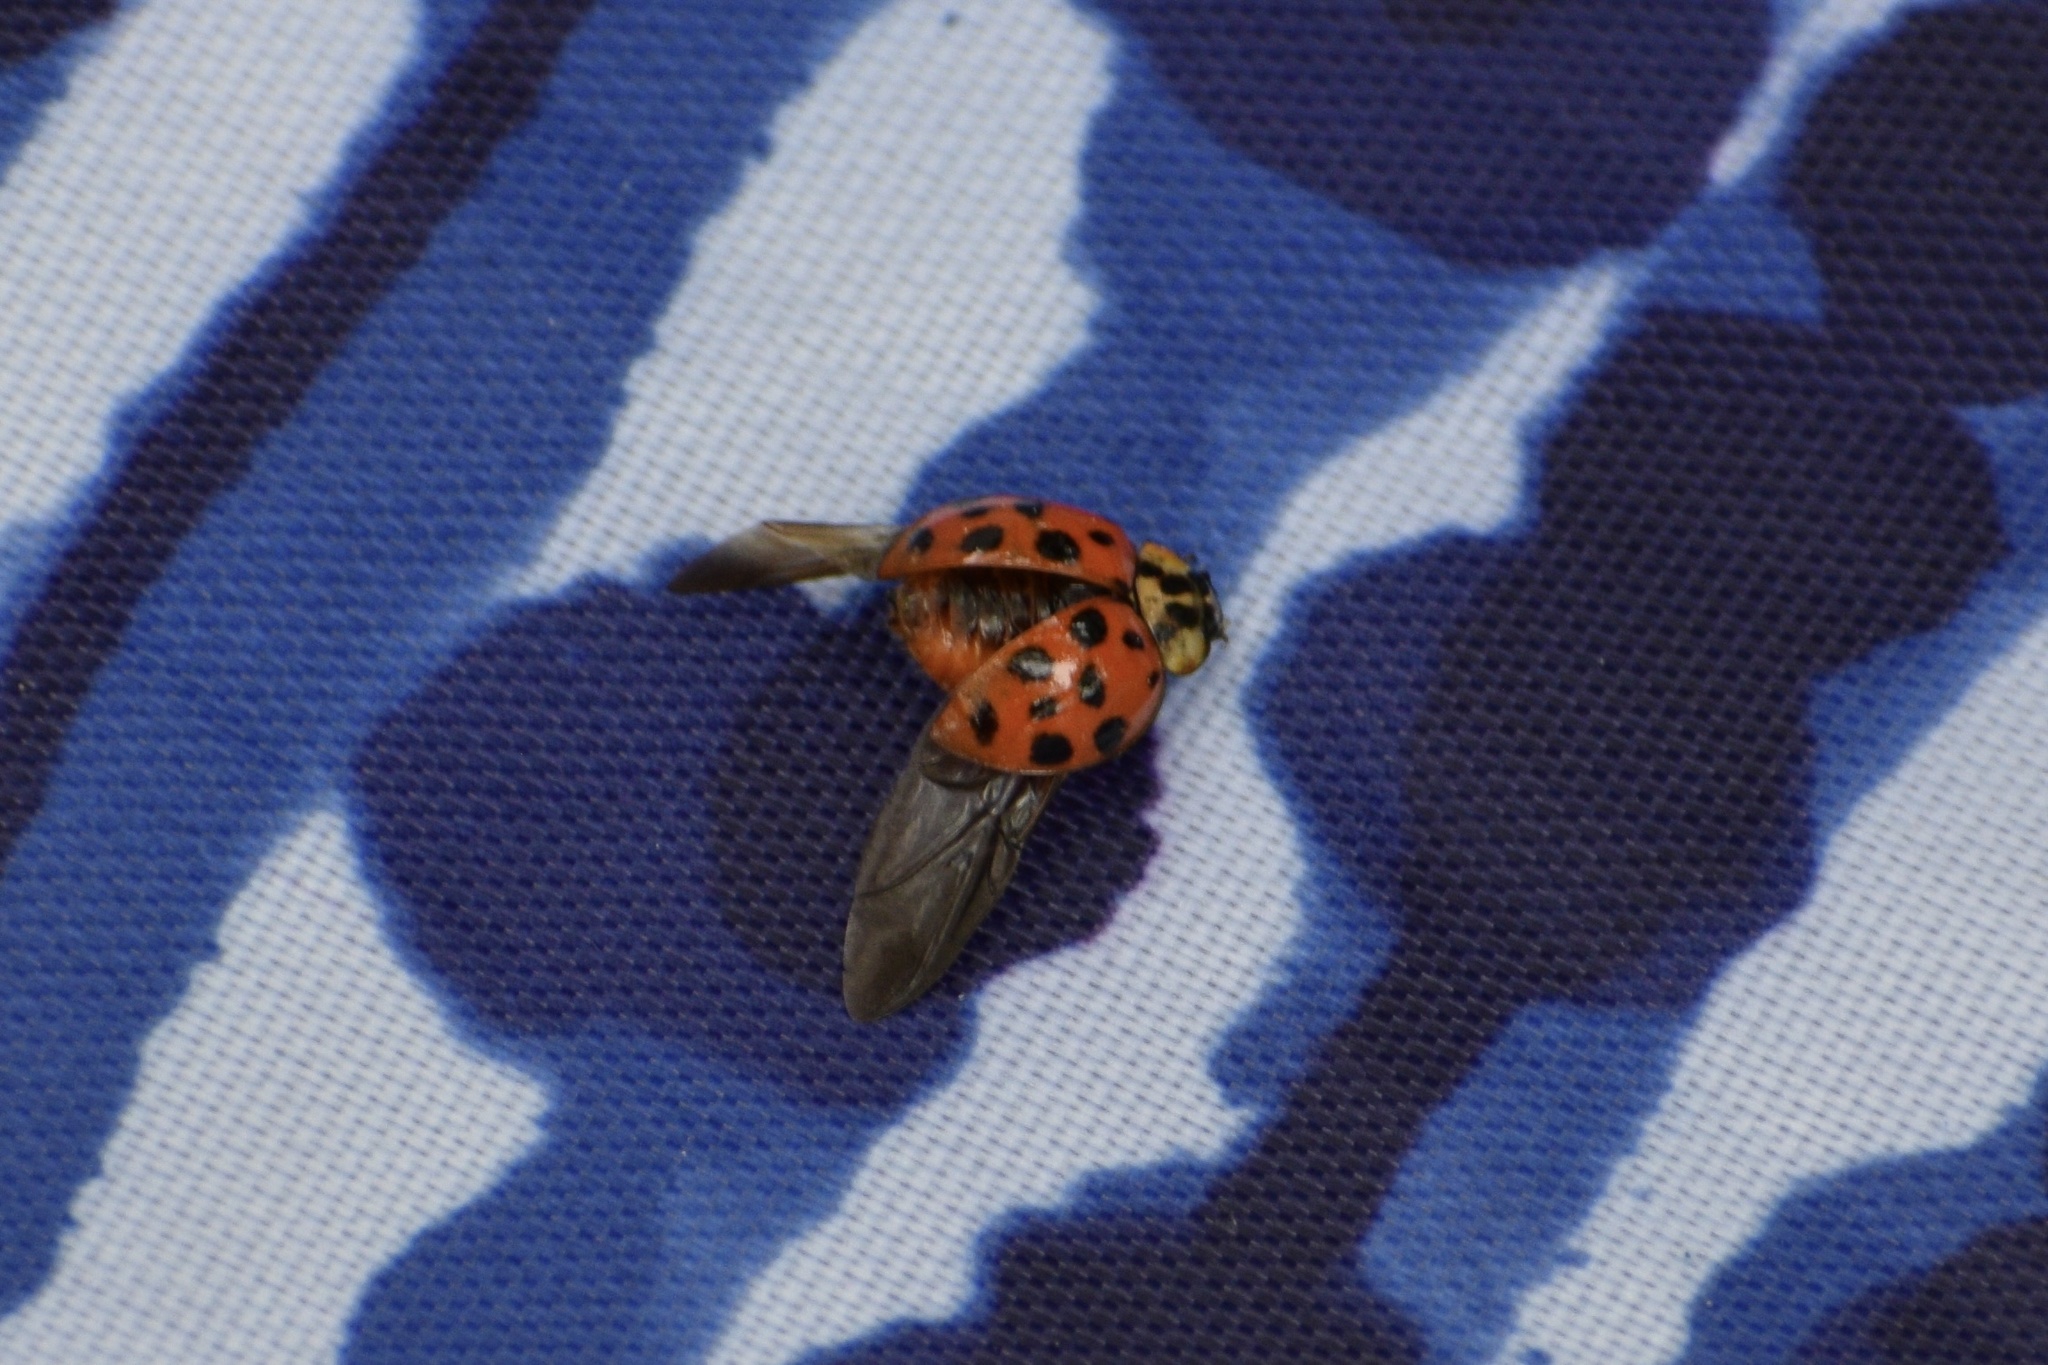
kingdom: Animalia
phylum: Arthropoda
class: Insecta
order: Coleoptera
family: Coccinellidae
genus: Harmonia
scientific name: Harmonia axyridis
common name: Harlequin ladybird
